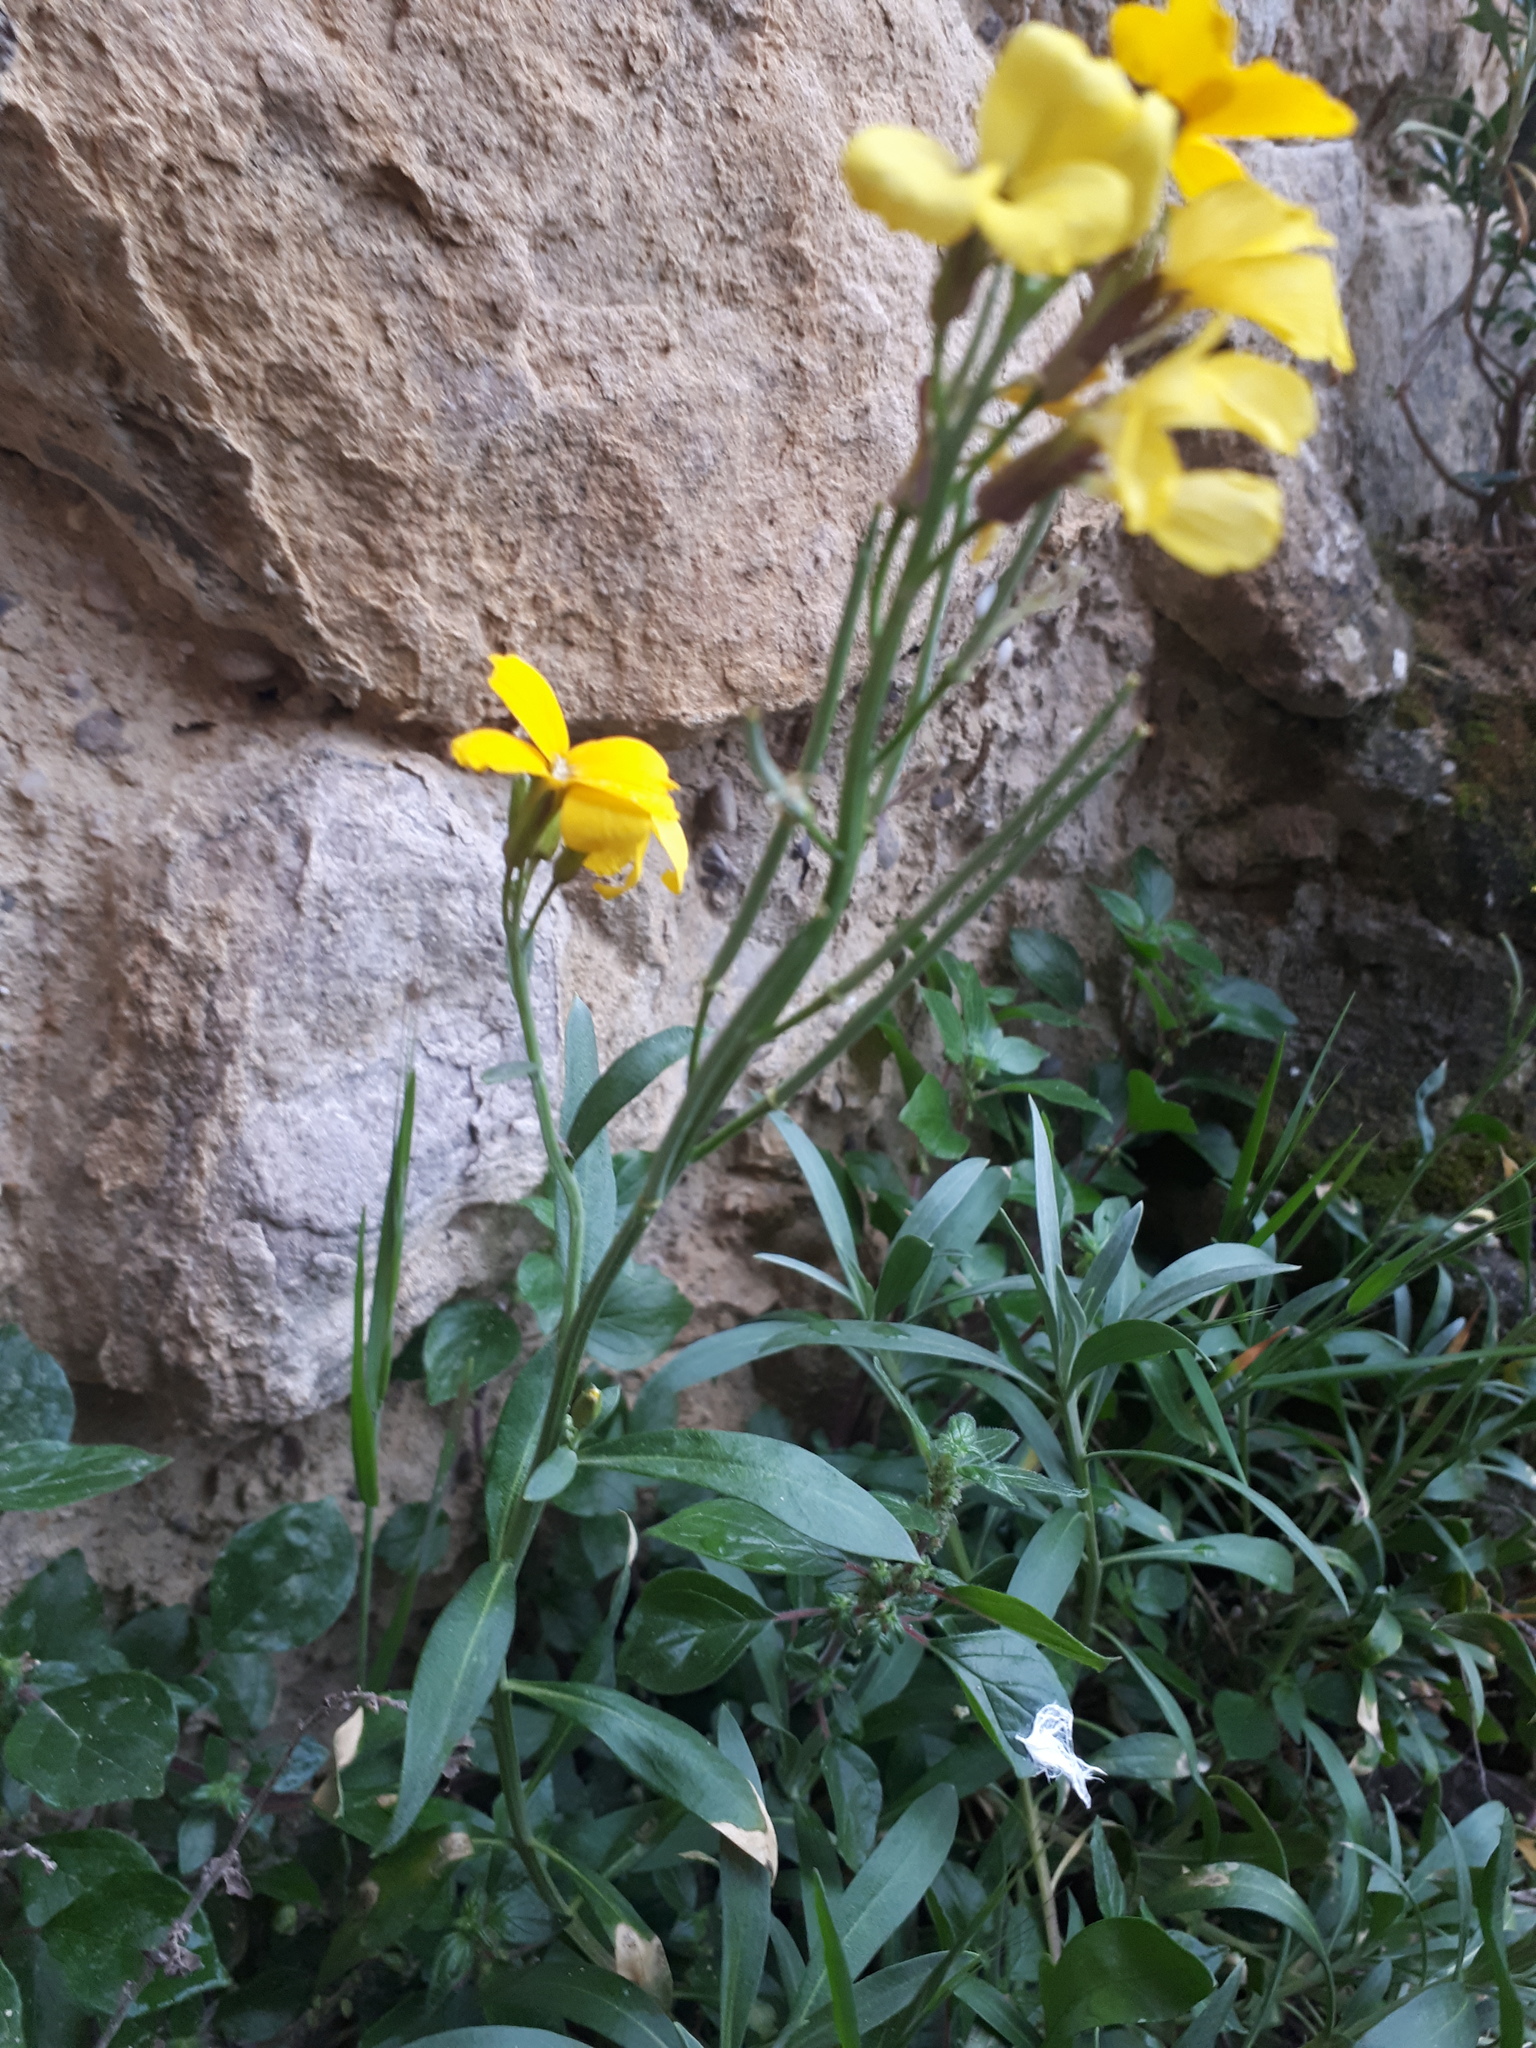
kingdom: Plantae
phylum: Tracheophyta
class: Magnoliopsida
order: Brassicales
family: Brassicaceae
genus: Erysimum
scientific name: Erysimum cheiri
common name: Wallflower
